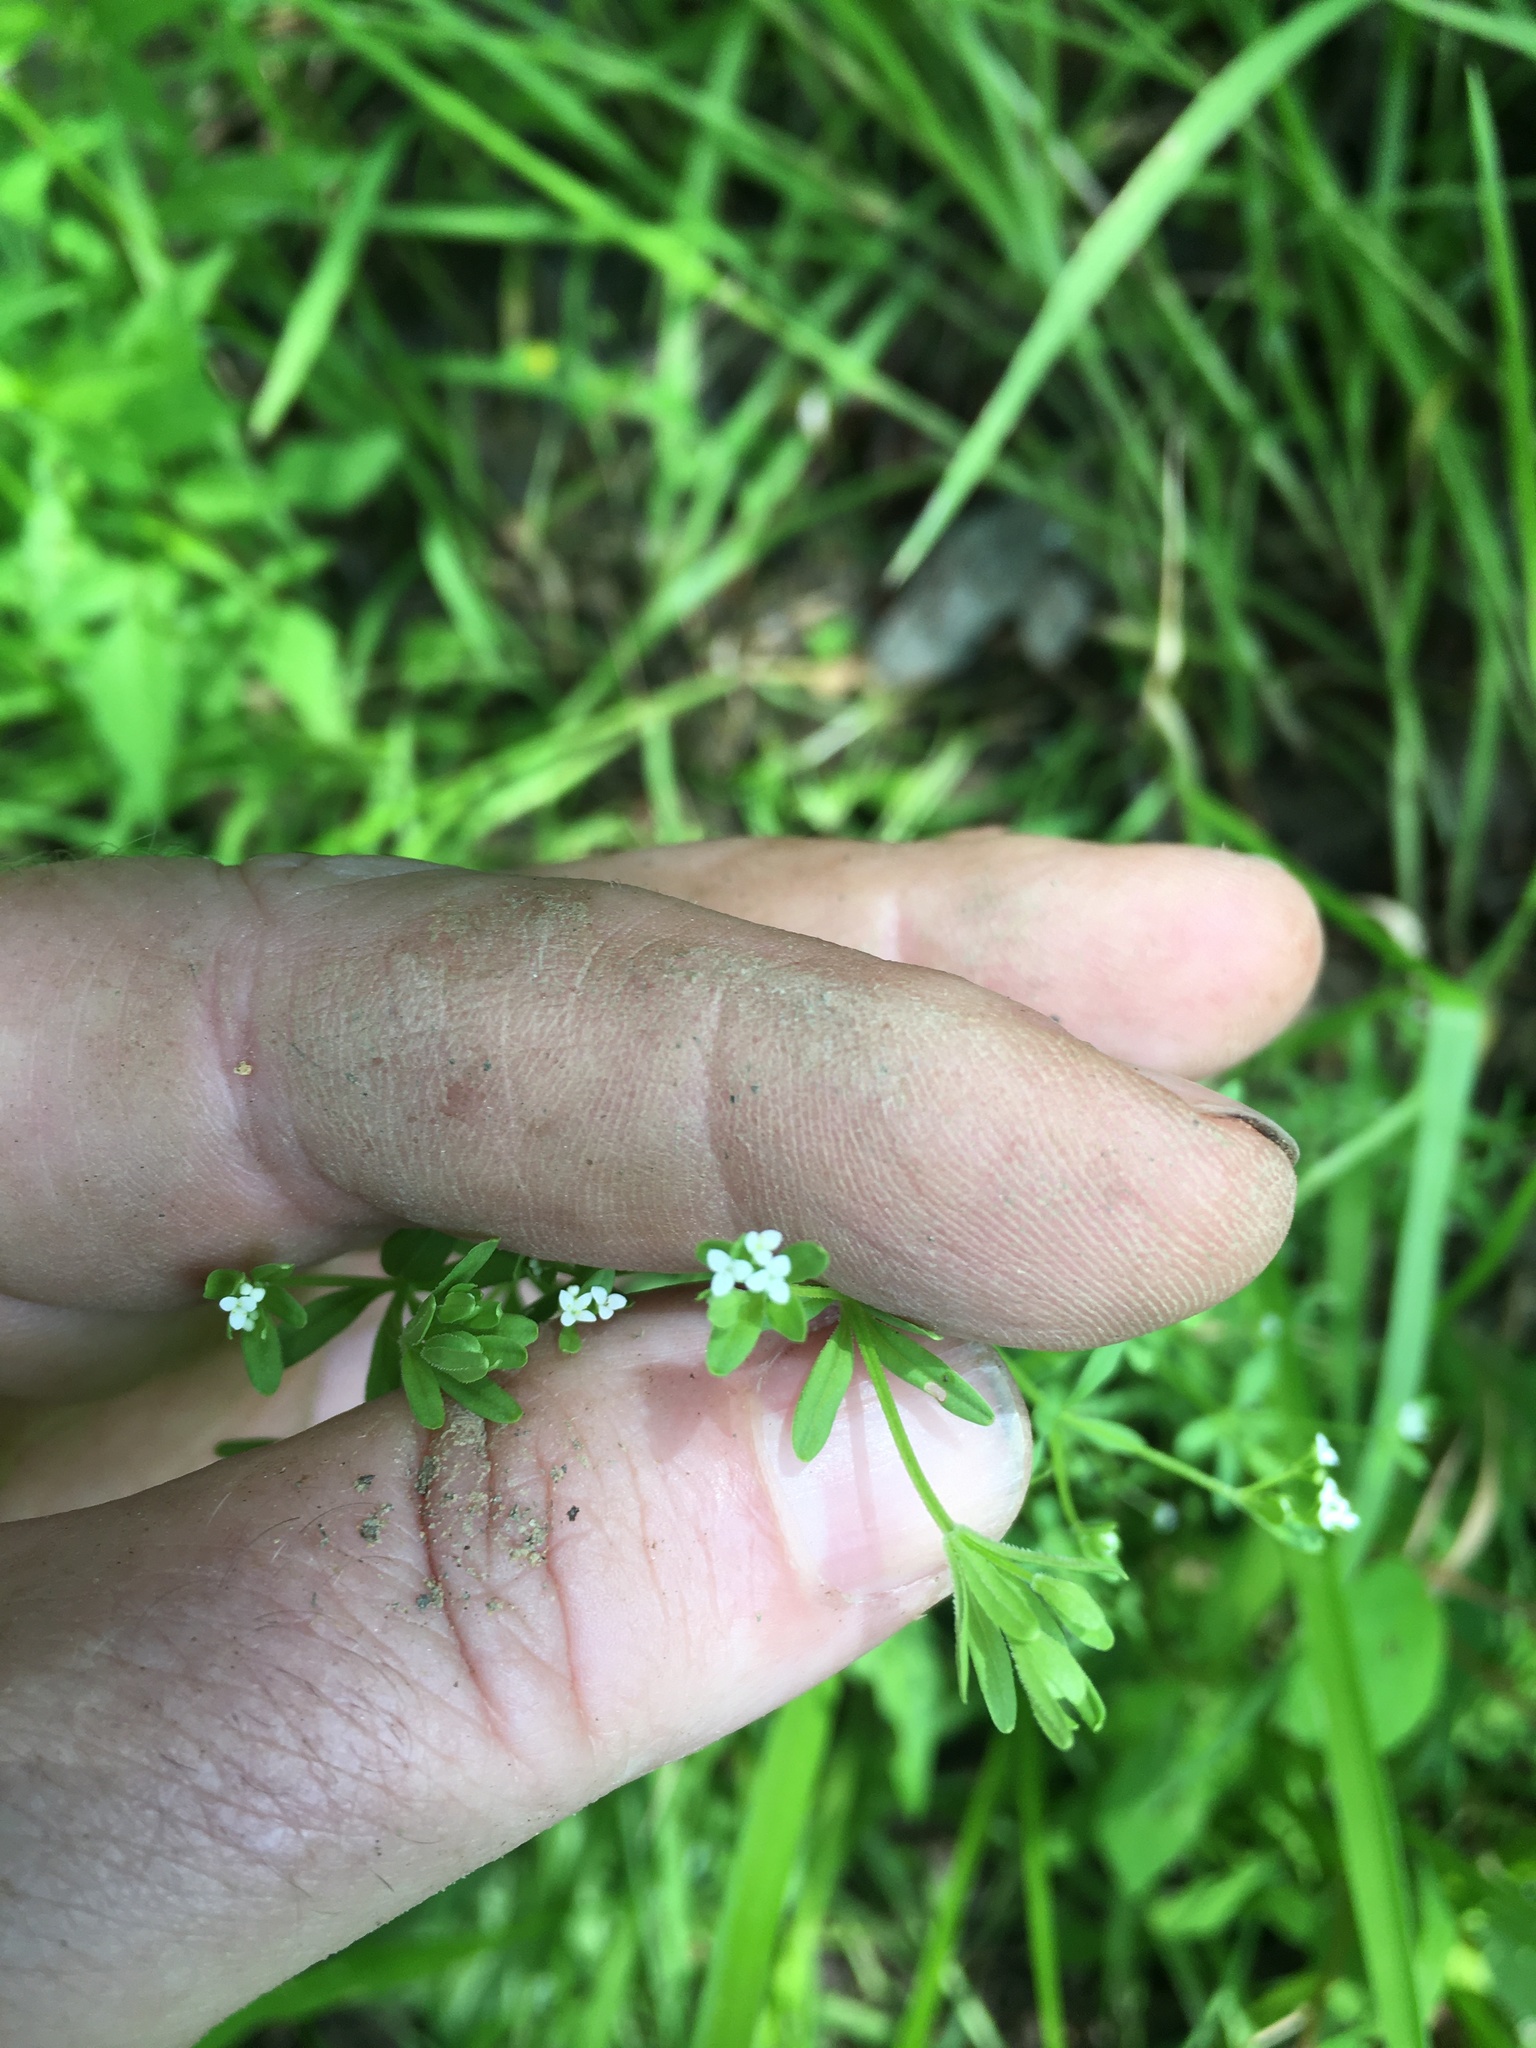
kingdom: Plantae
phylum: Tracheophyta
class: Magnoliopsida
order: Gentianales
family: Rubiaceae
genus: Galium
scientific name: Galium tinctorium
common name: Bedstraw
